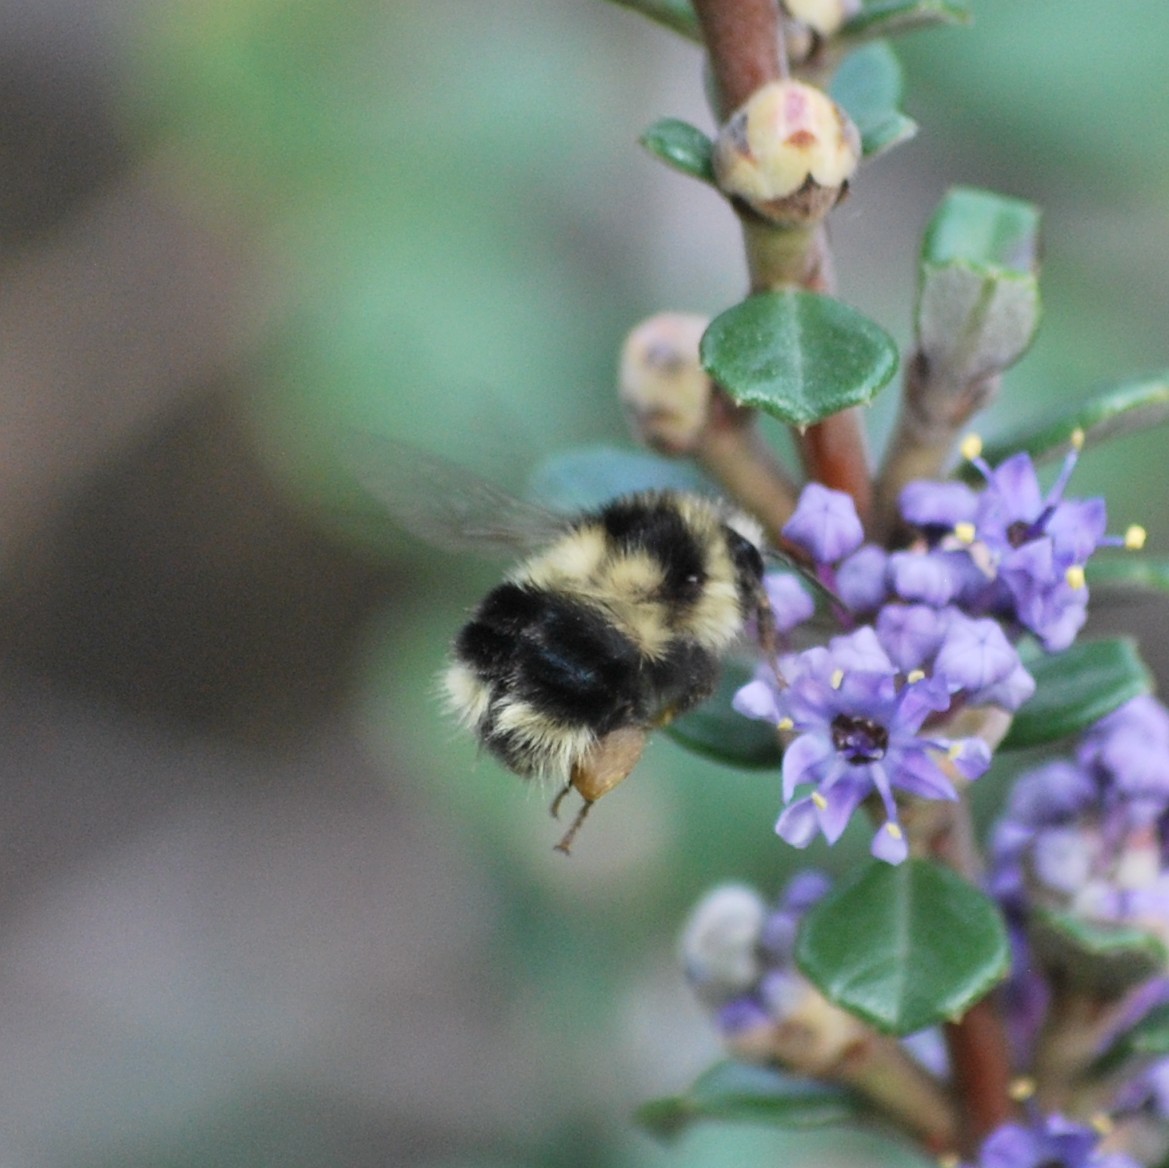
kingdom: Animalia
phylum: Arthropoda
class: Insecta
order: Hymenoptera
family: Apidae
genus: Bombus
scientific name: Bombus melanopygus
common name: Black tail bumble bee
